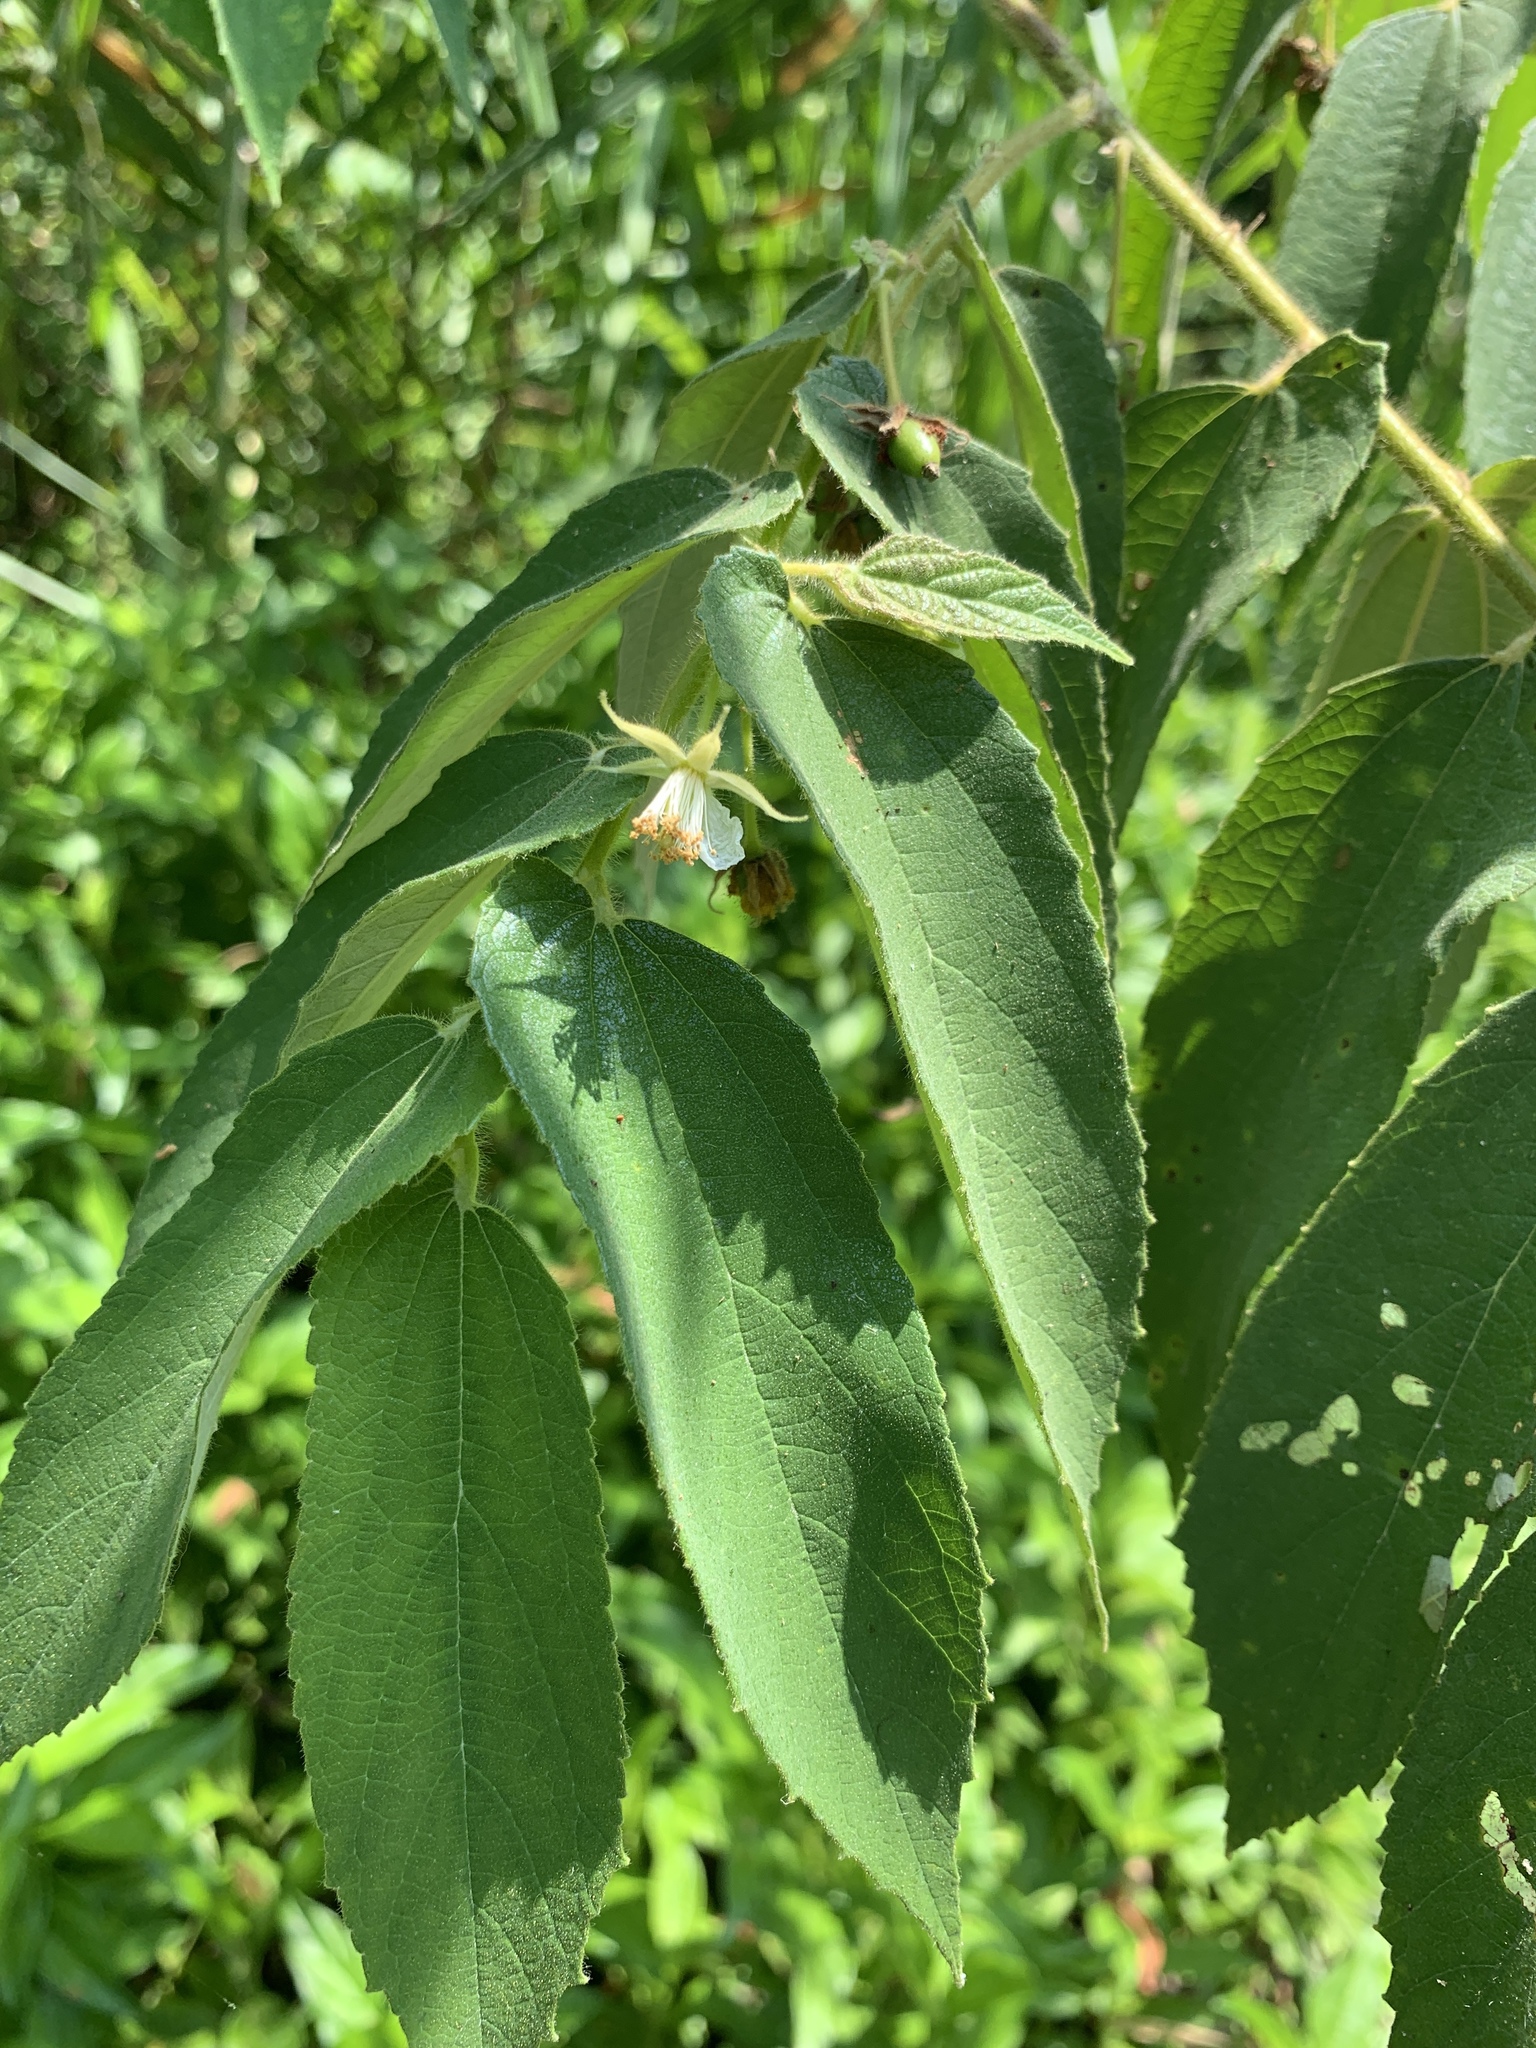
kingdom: Plantae
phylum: Tracheophyta
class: Magnoliopsida
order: Malvales
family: Muntingiaceae
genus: Muntingia
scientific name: Muntingia calabura
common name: Strawberrytree
